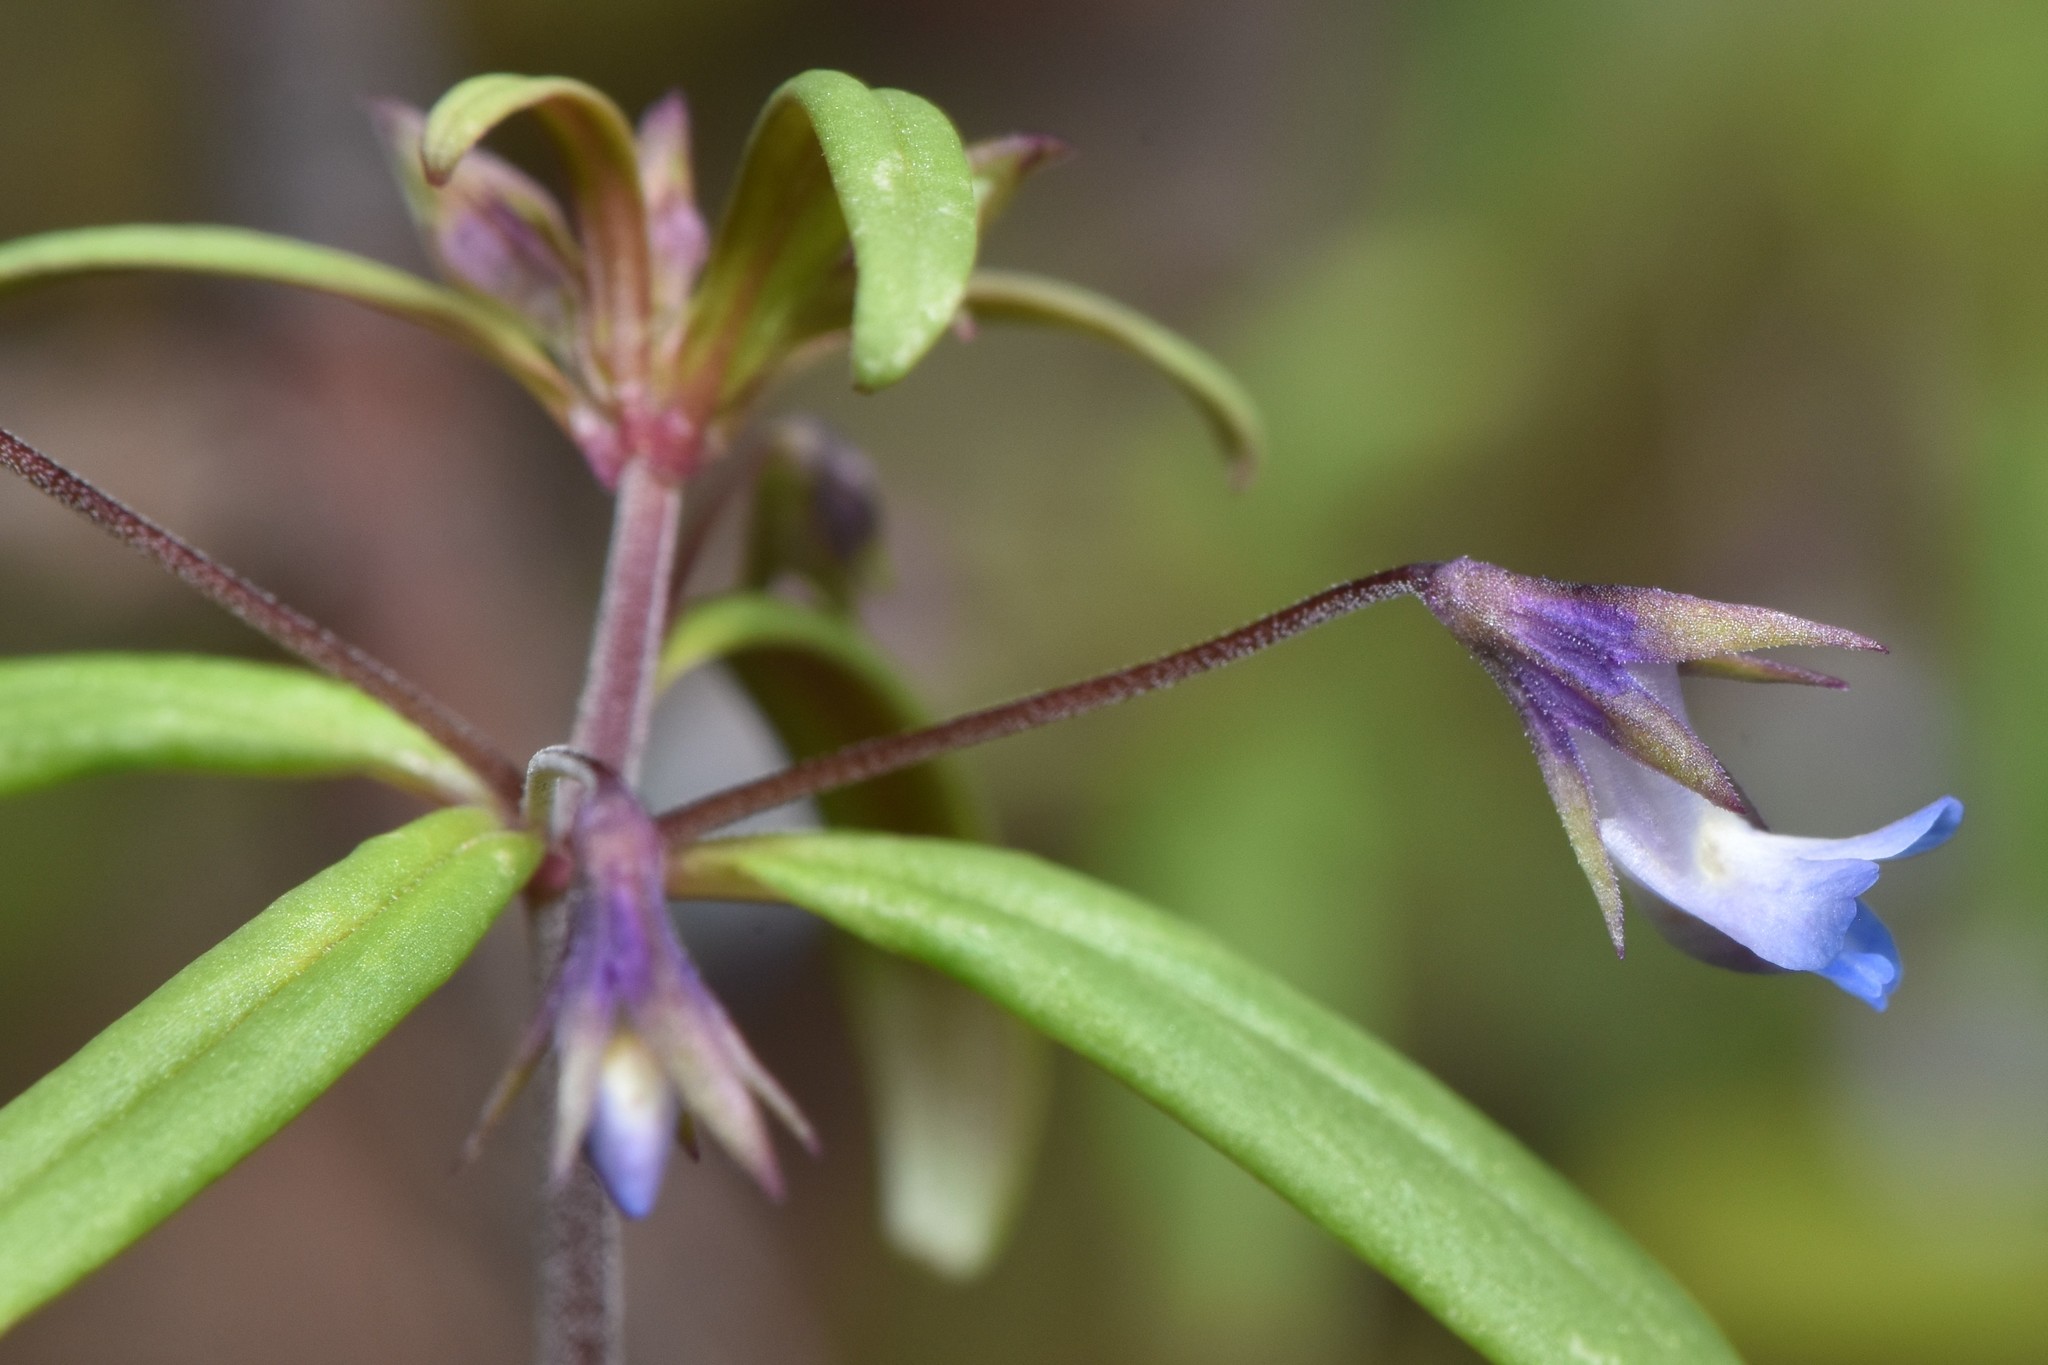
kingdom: Plantae
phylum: Tracheophyta
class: Magnoliopsida
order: Lamiales
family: Plantaginaceae
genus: Collinsia
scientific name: Collinsia parviflora
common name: Blue-lips
